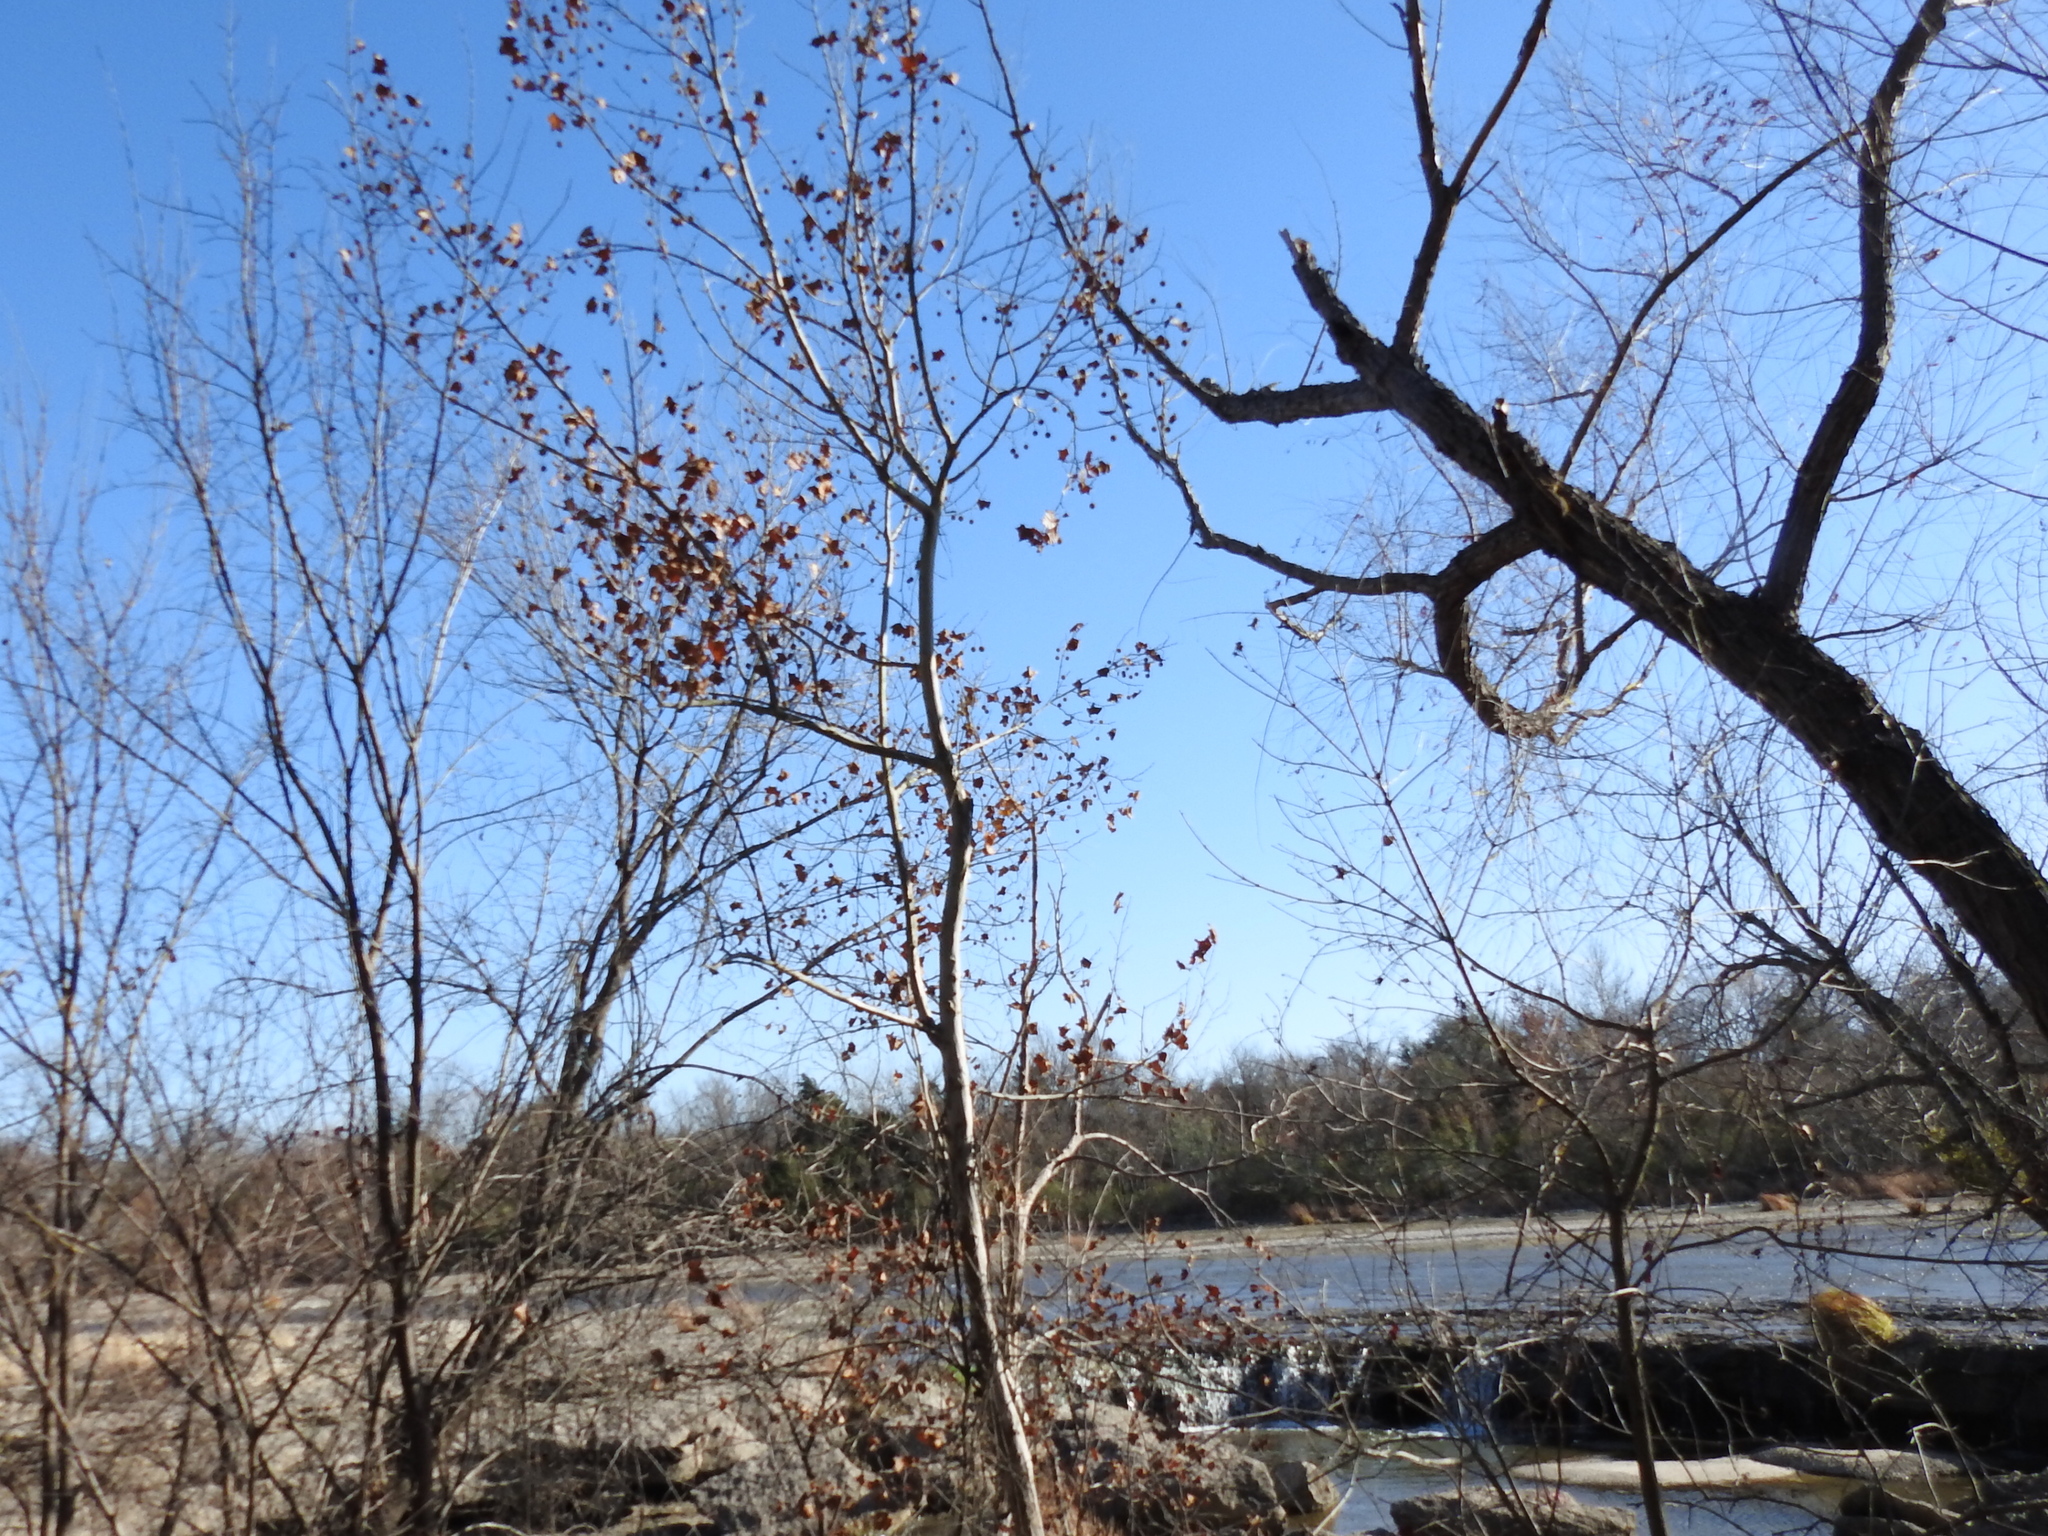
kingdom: Plantae
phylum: Tracheophyta
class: Magnoliopsida
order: Proteales
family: Platanaceae
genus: Platanus
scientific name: Platanus occidentalis
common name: American sycamore
